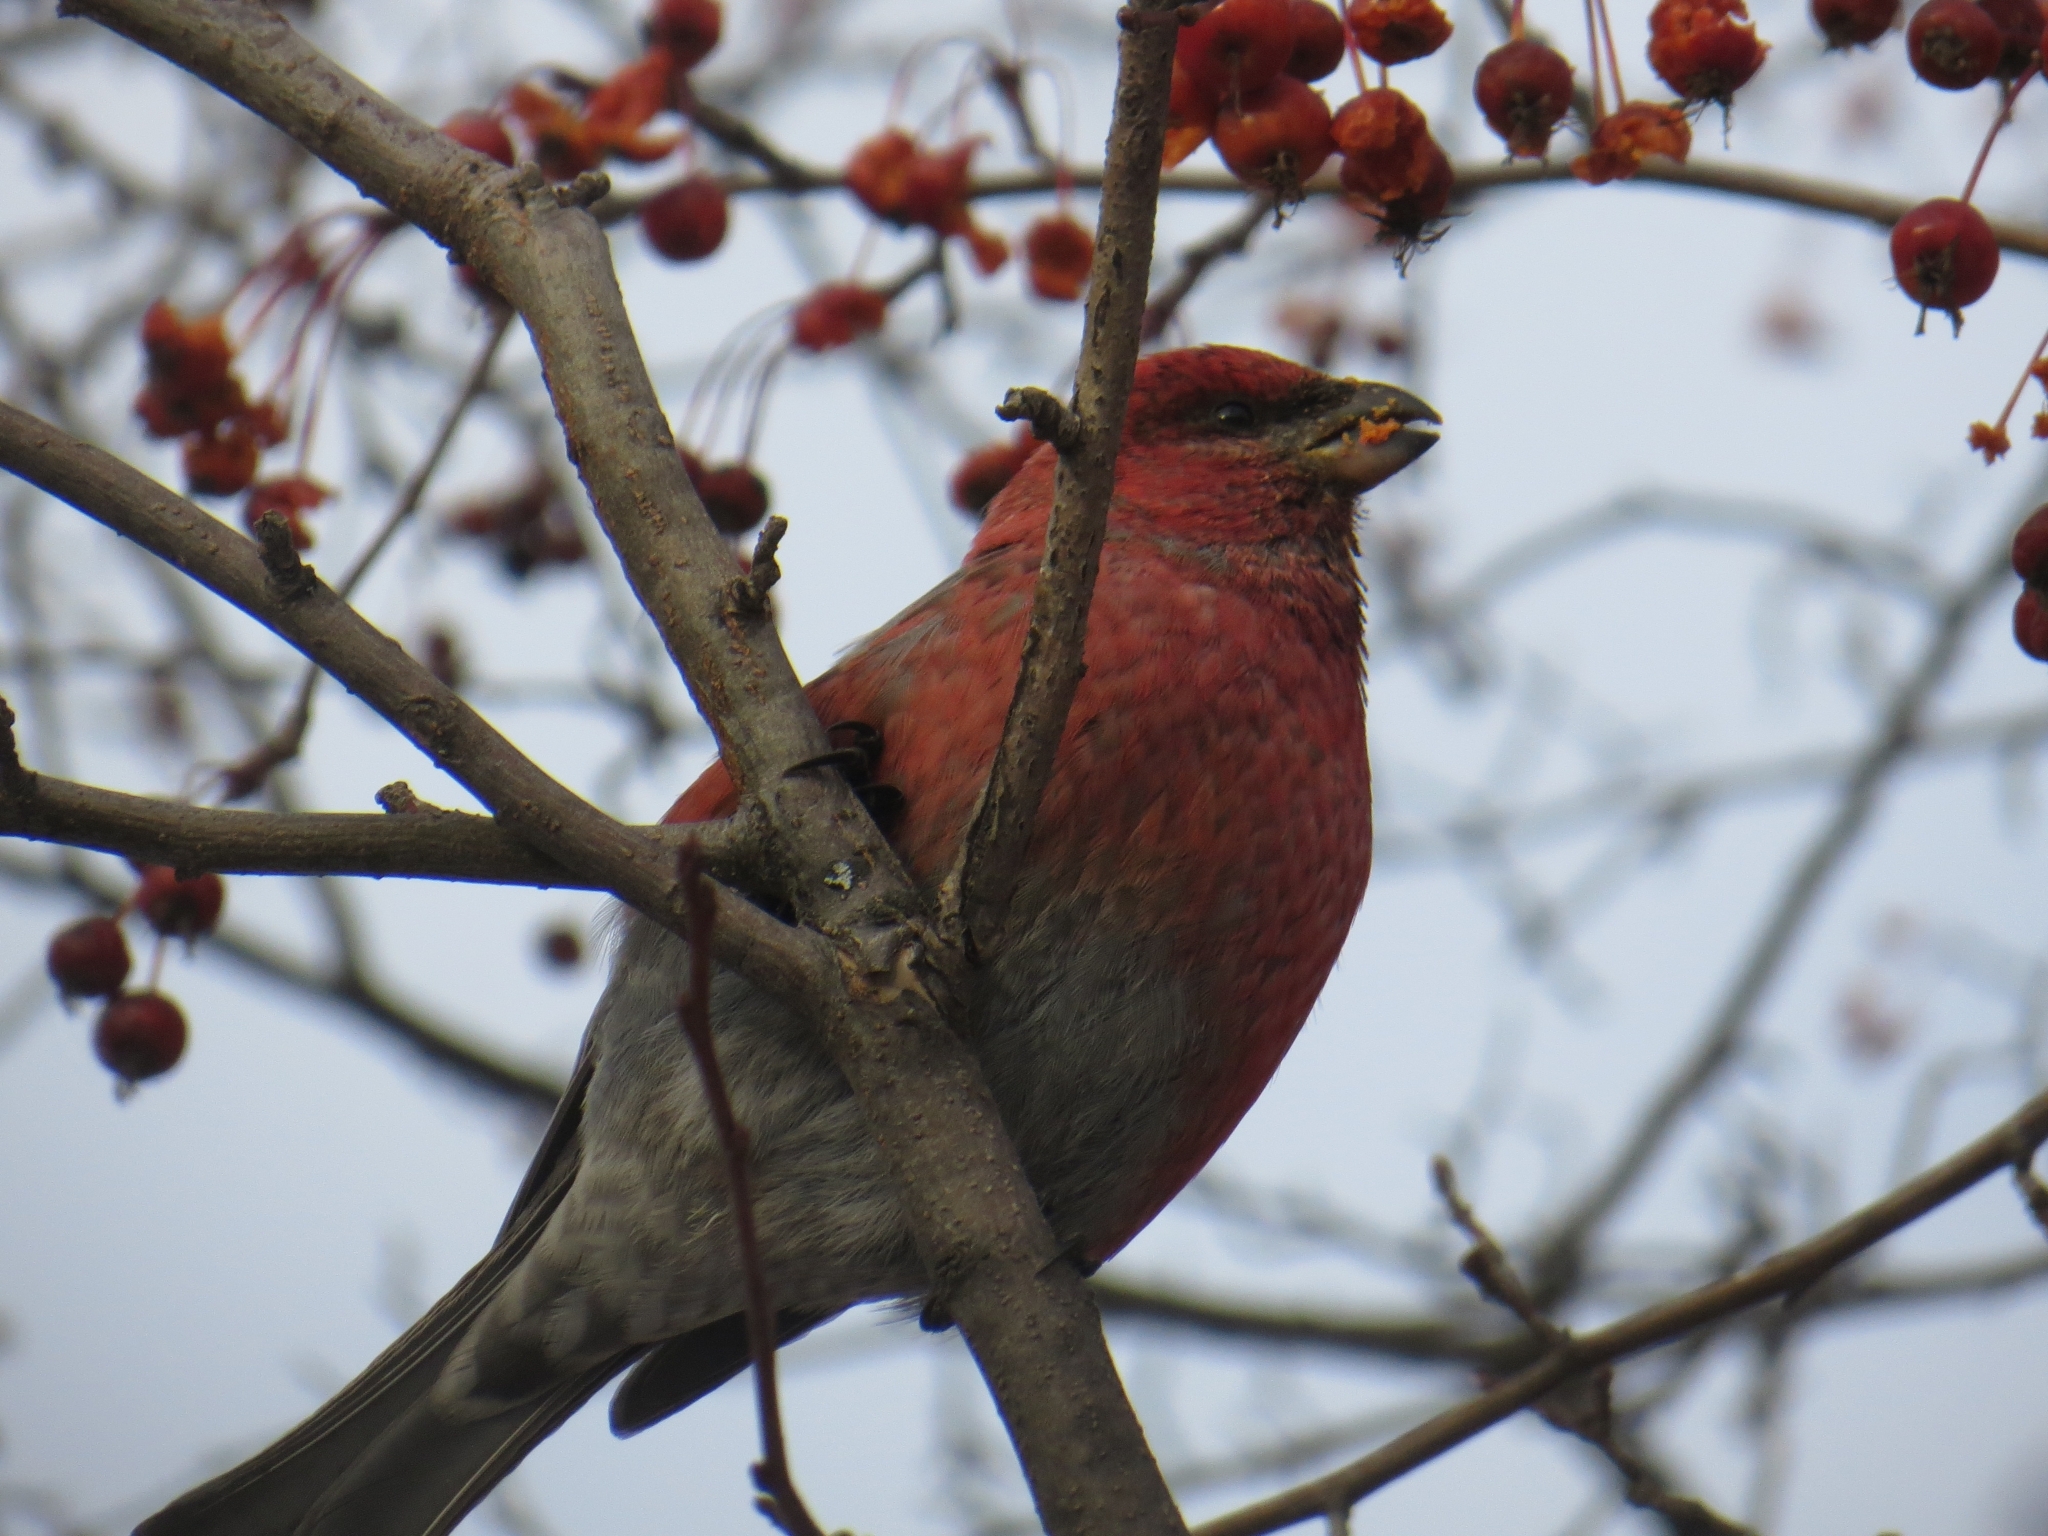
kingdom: Animalia
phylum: Chordata
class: Aves
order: Passeriformes
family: Fringillidae
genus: Pinicola
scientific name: Pinicola enucleator
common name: Pine grosbeak
